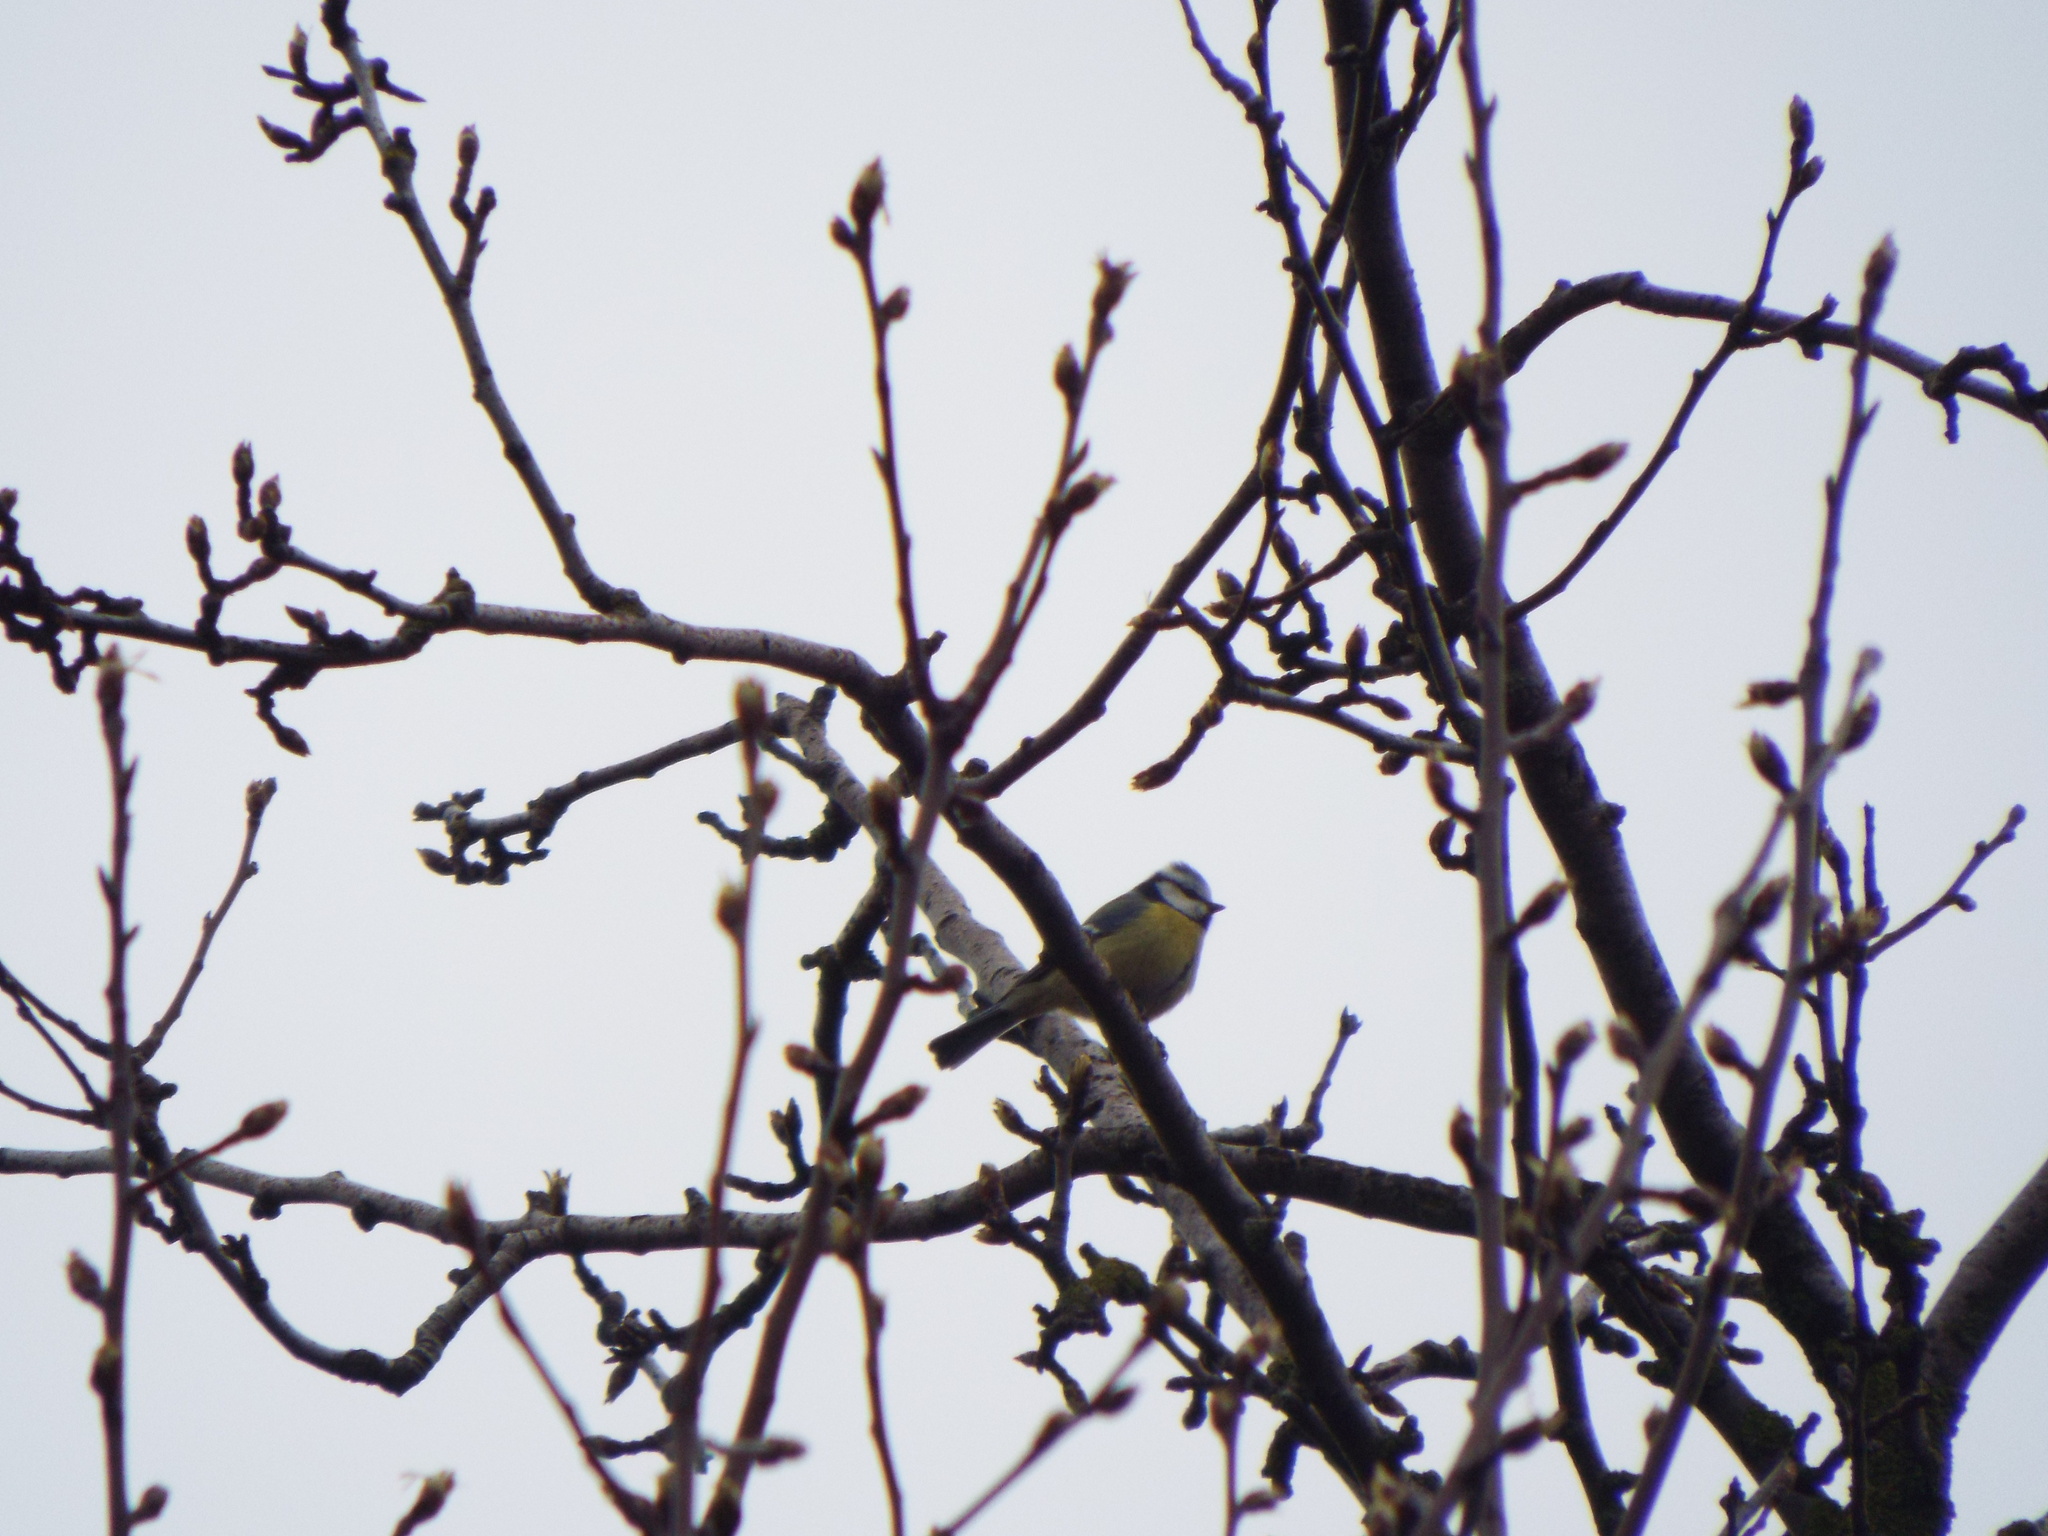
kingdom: Animalia
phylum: Chordata
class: Aves
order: Passeriformes
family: Paridae
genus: Cyanistes
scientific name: Cyanistes caeruleus
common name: Eurasian blue tit
